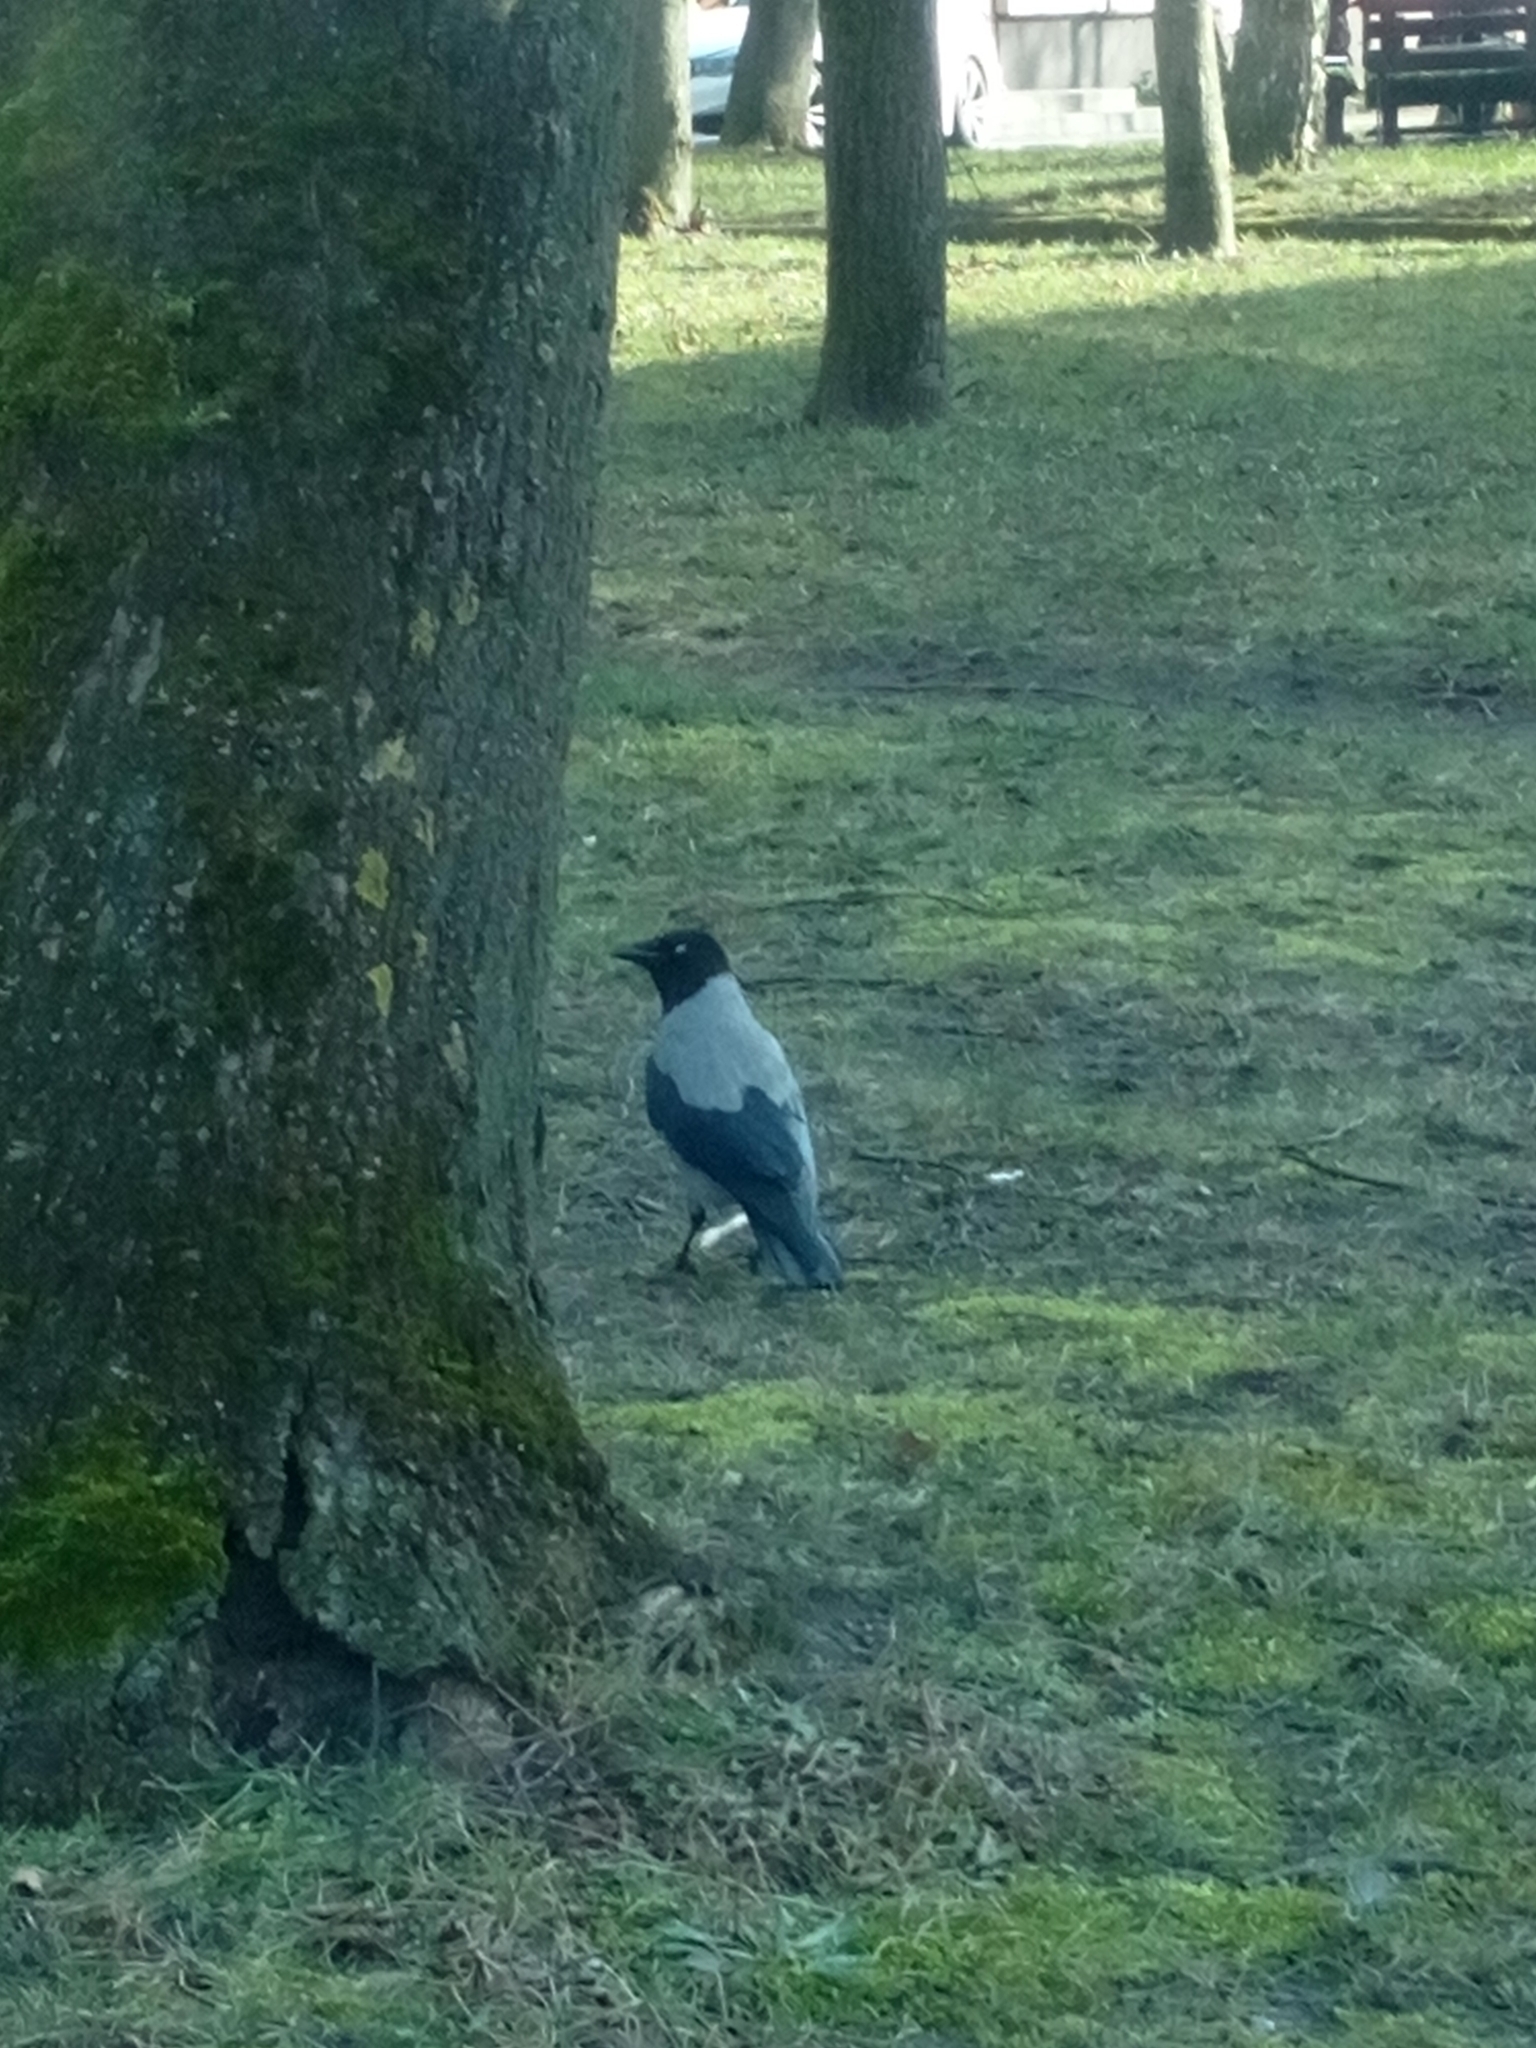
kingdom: Animalia
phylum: Chordata
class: Aves
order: Passeriformes
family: Corvidae
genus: Corvus
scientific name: Corvus cornix
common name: Hooded crow
